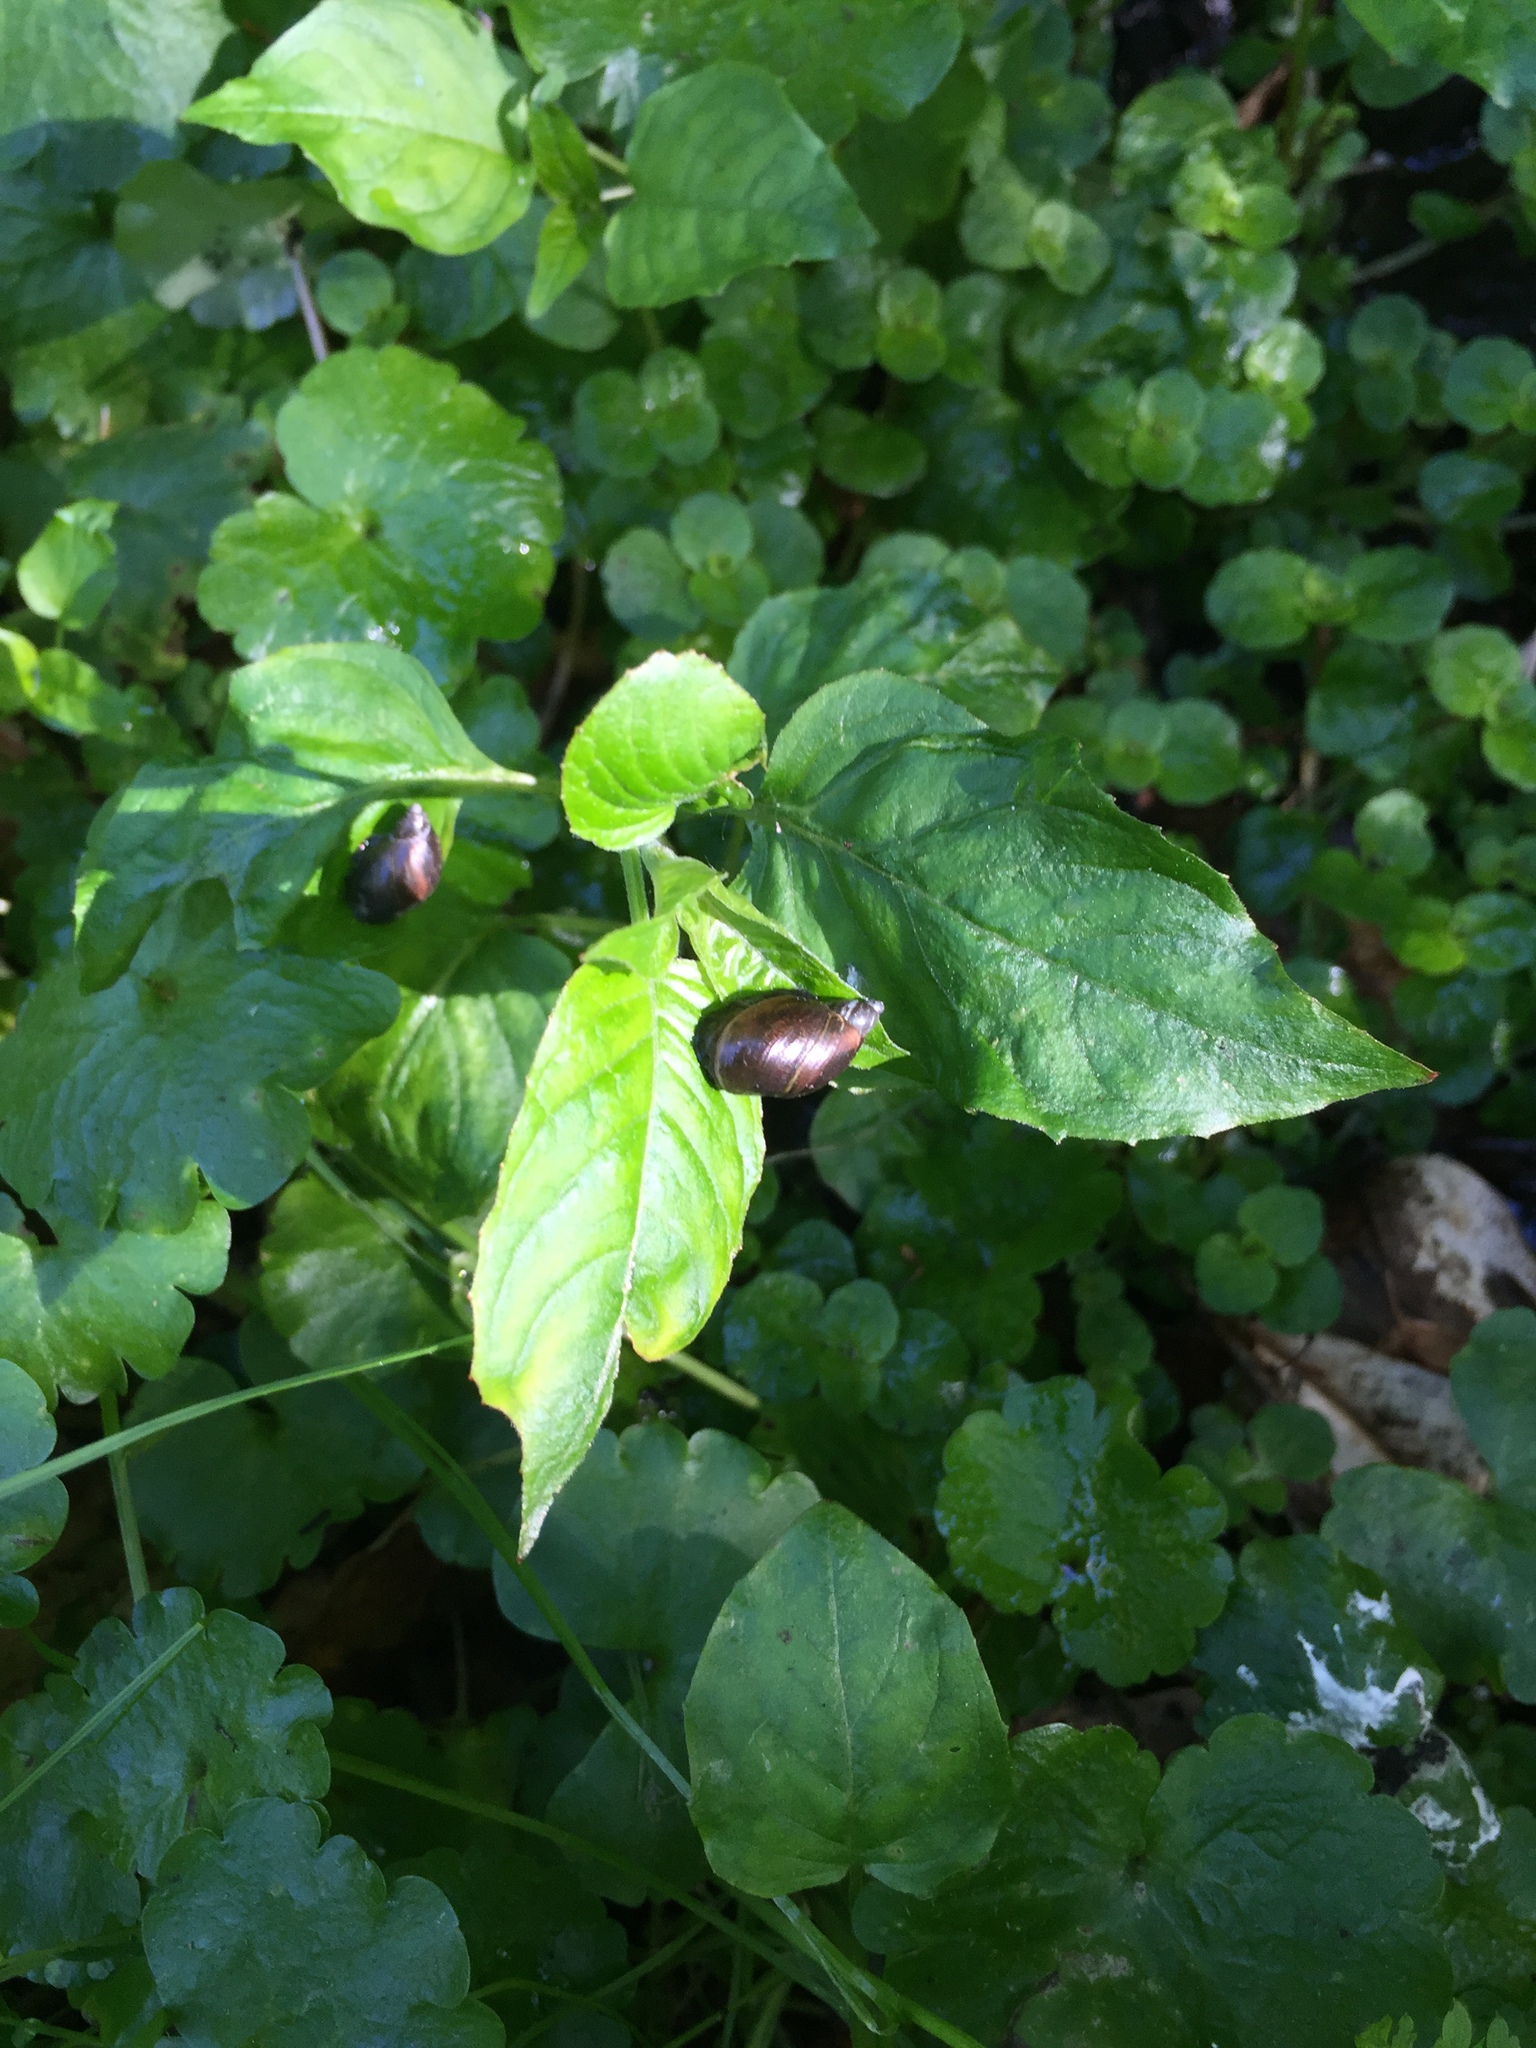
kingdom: Animalia
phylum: Mollusca
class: Gastropoda
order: Stylommatophora
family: Succineidae
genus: Succinea
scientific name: Succinea putris
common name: European ambersnail
